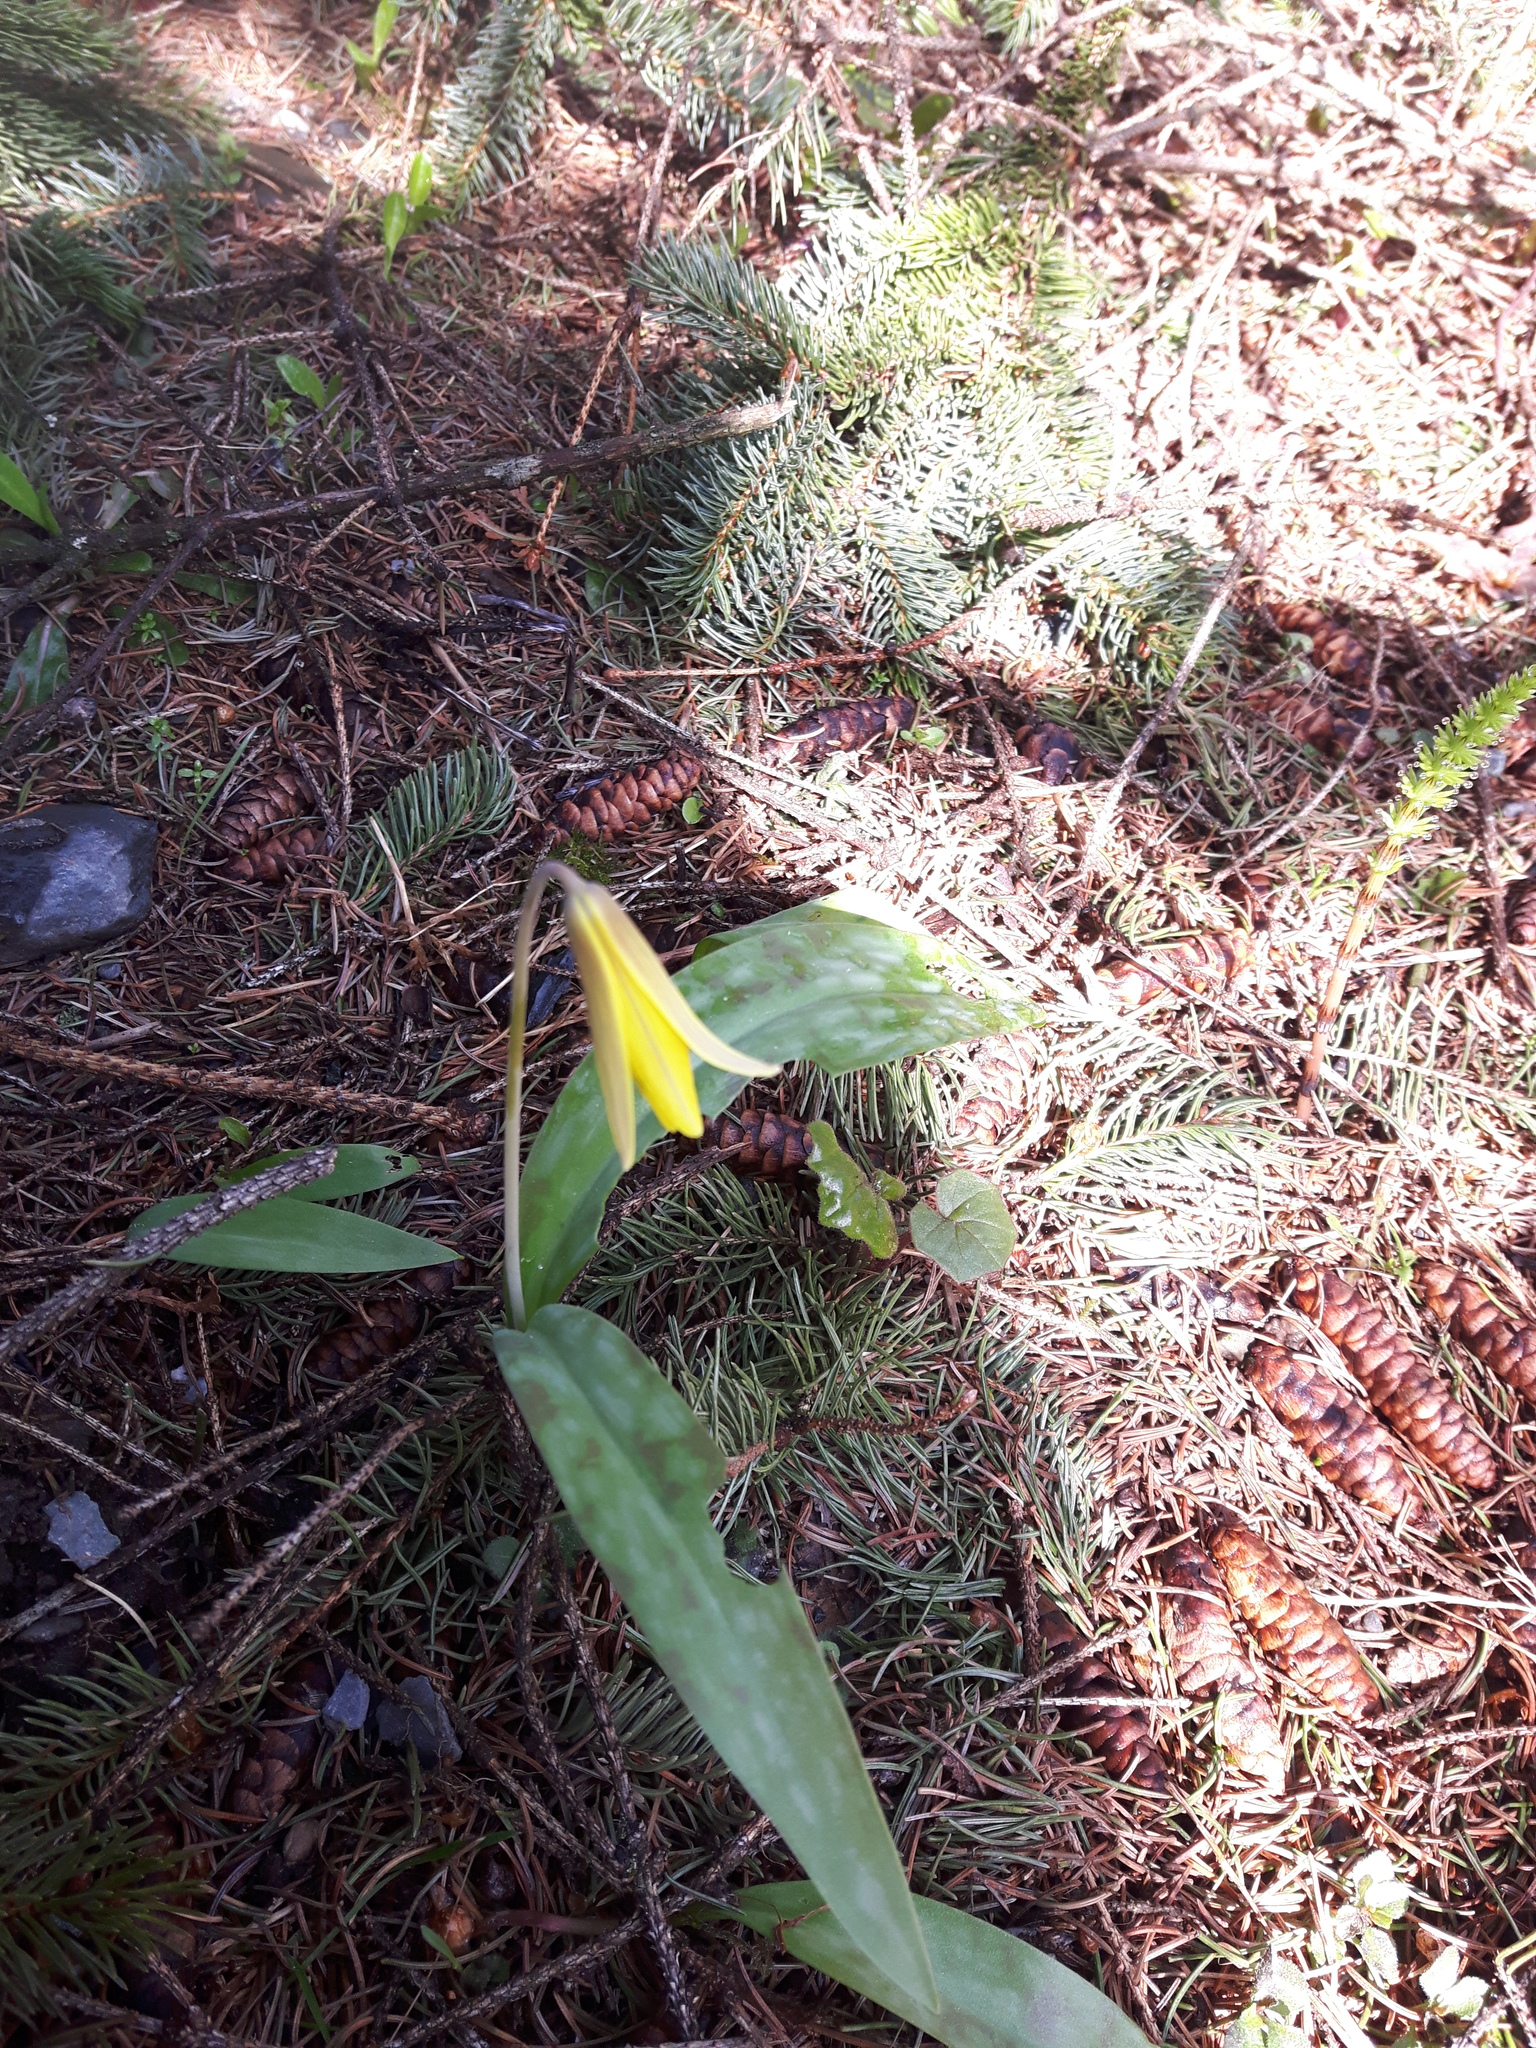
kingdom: Plantae
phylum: Tracheophyta
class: Liliopsida
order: Liliales
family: Liliaceae
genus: Erythronium
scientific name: Erythronium americanum
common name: Yellow adder's-tongue
